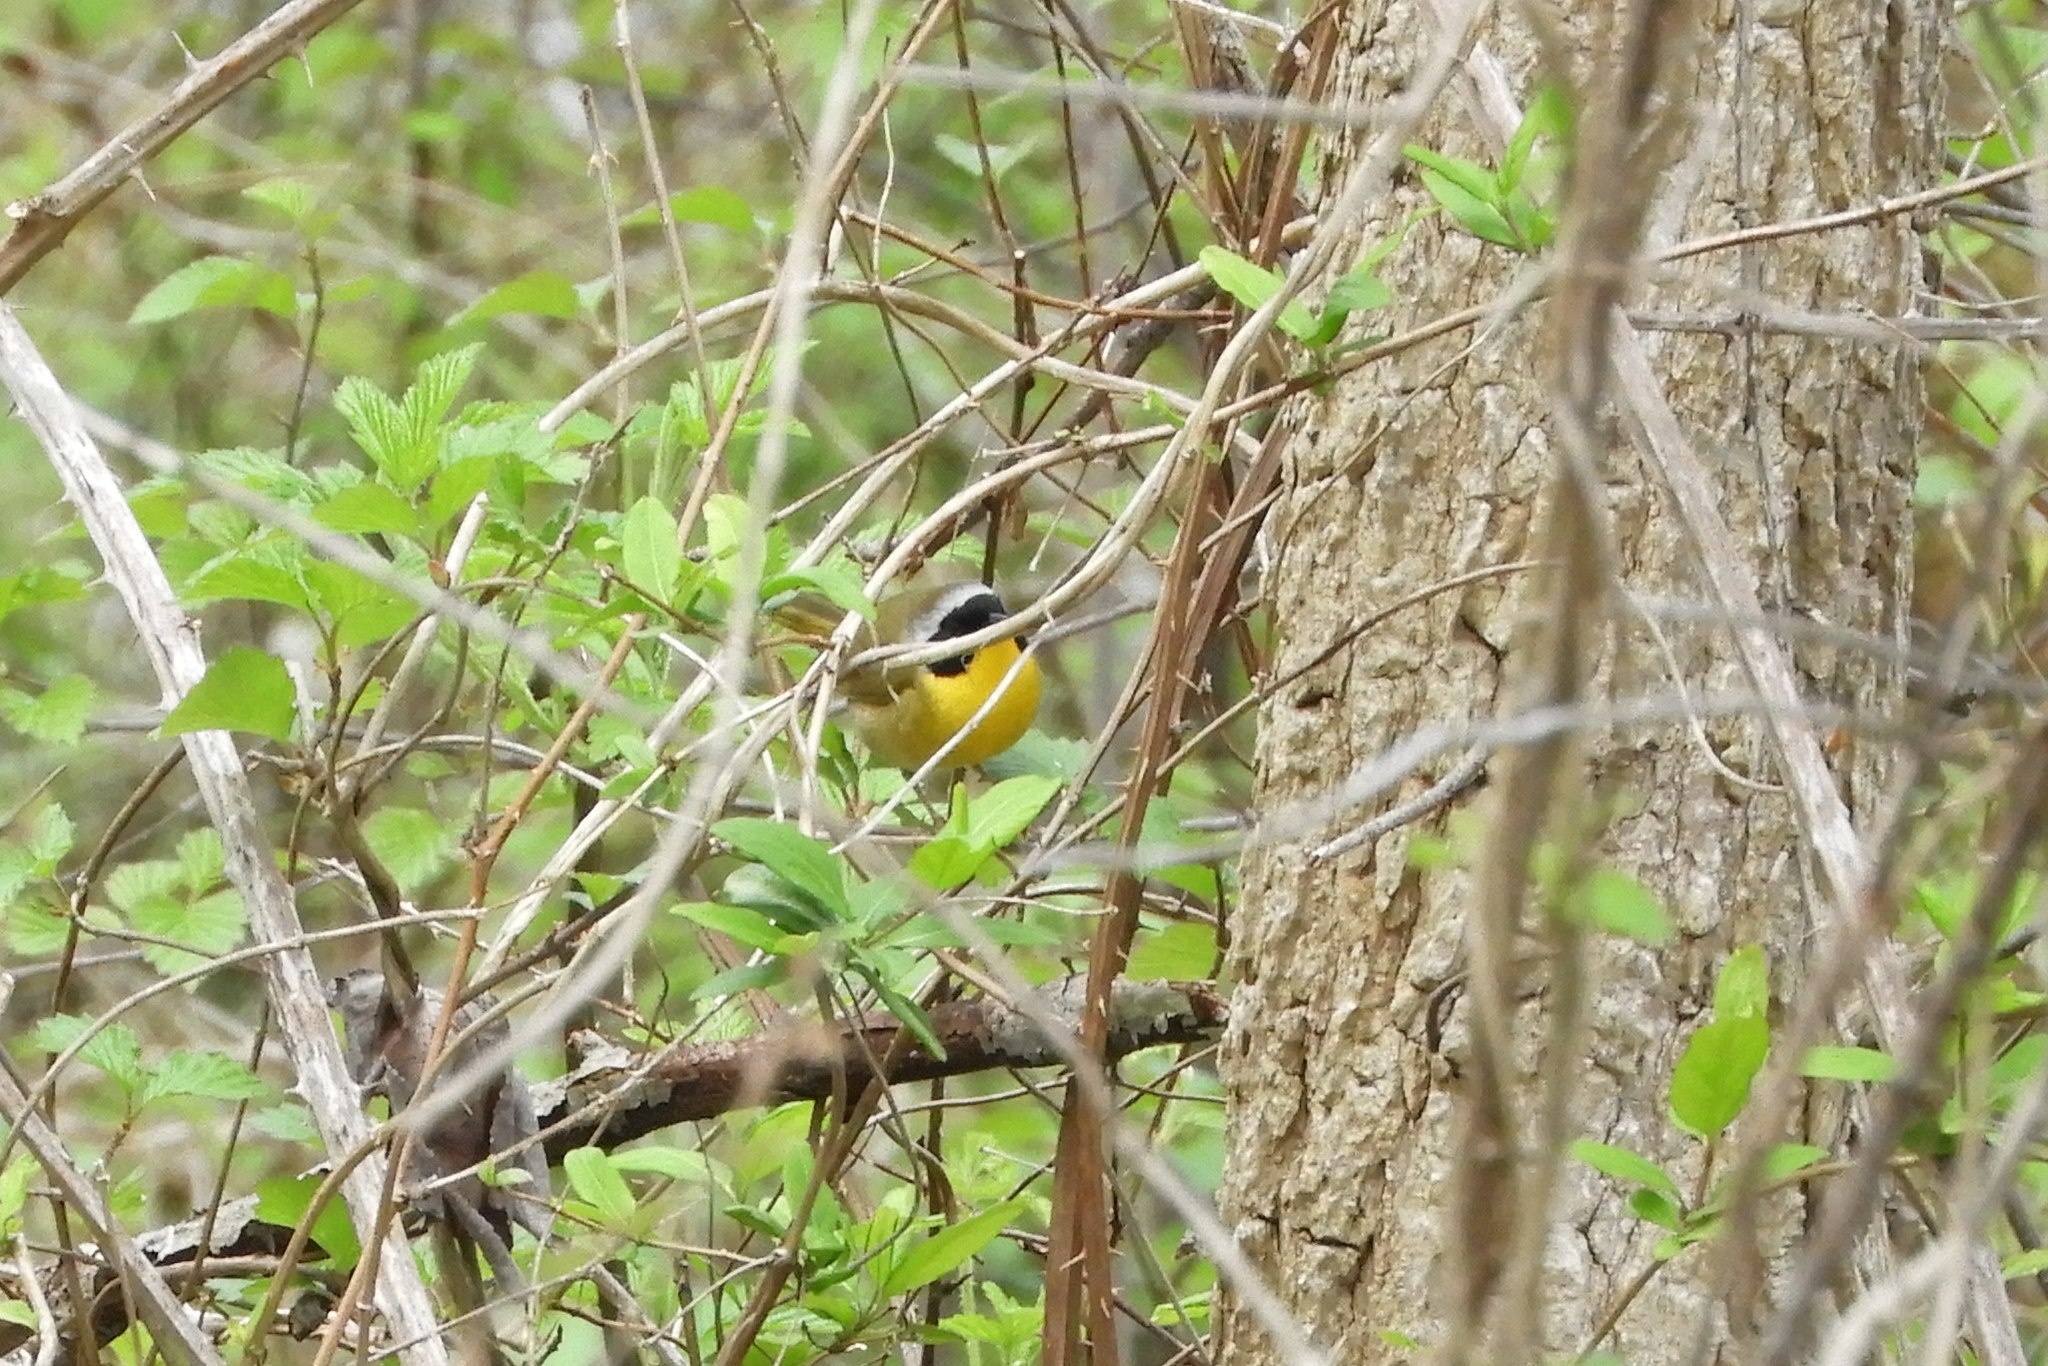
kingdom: Animalia
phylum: Chordata
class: Aves
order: Passeriformes
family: Parulidae
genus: Geothlypis
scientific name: Geothlypis trichas
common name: Common yellowthroat
